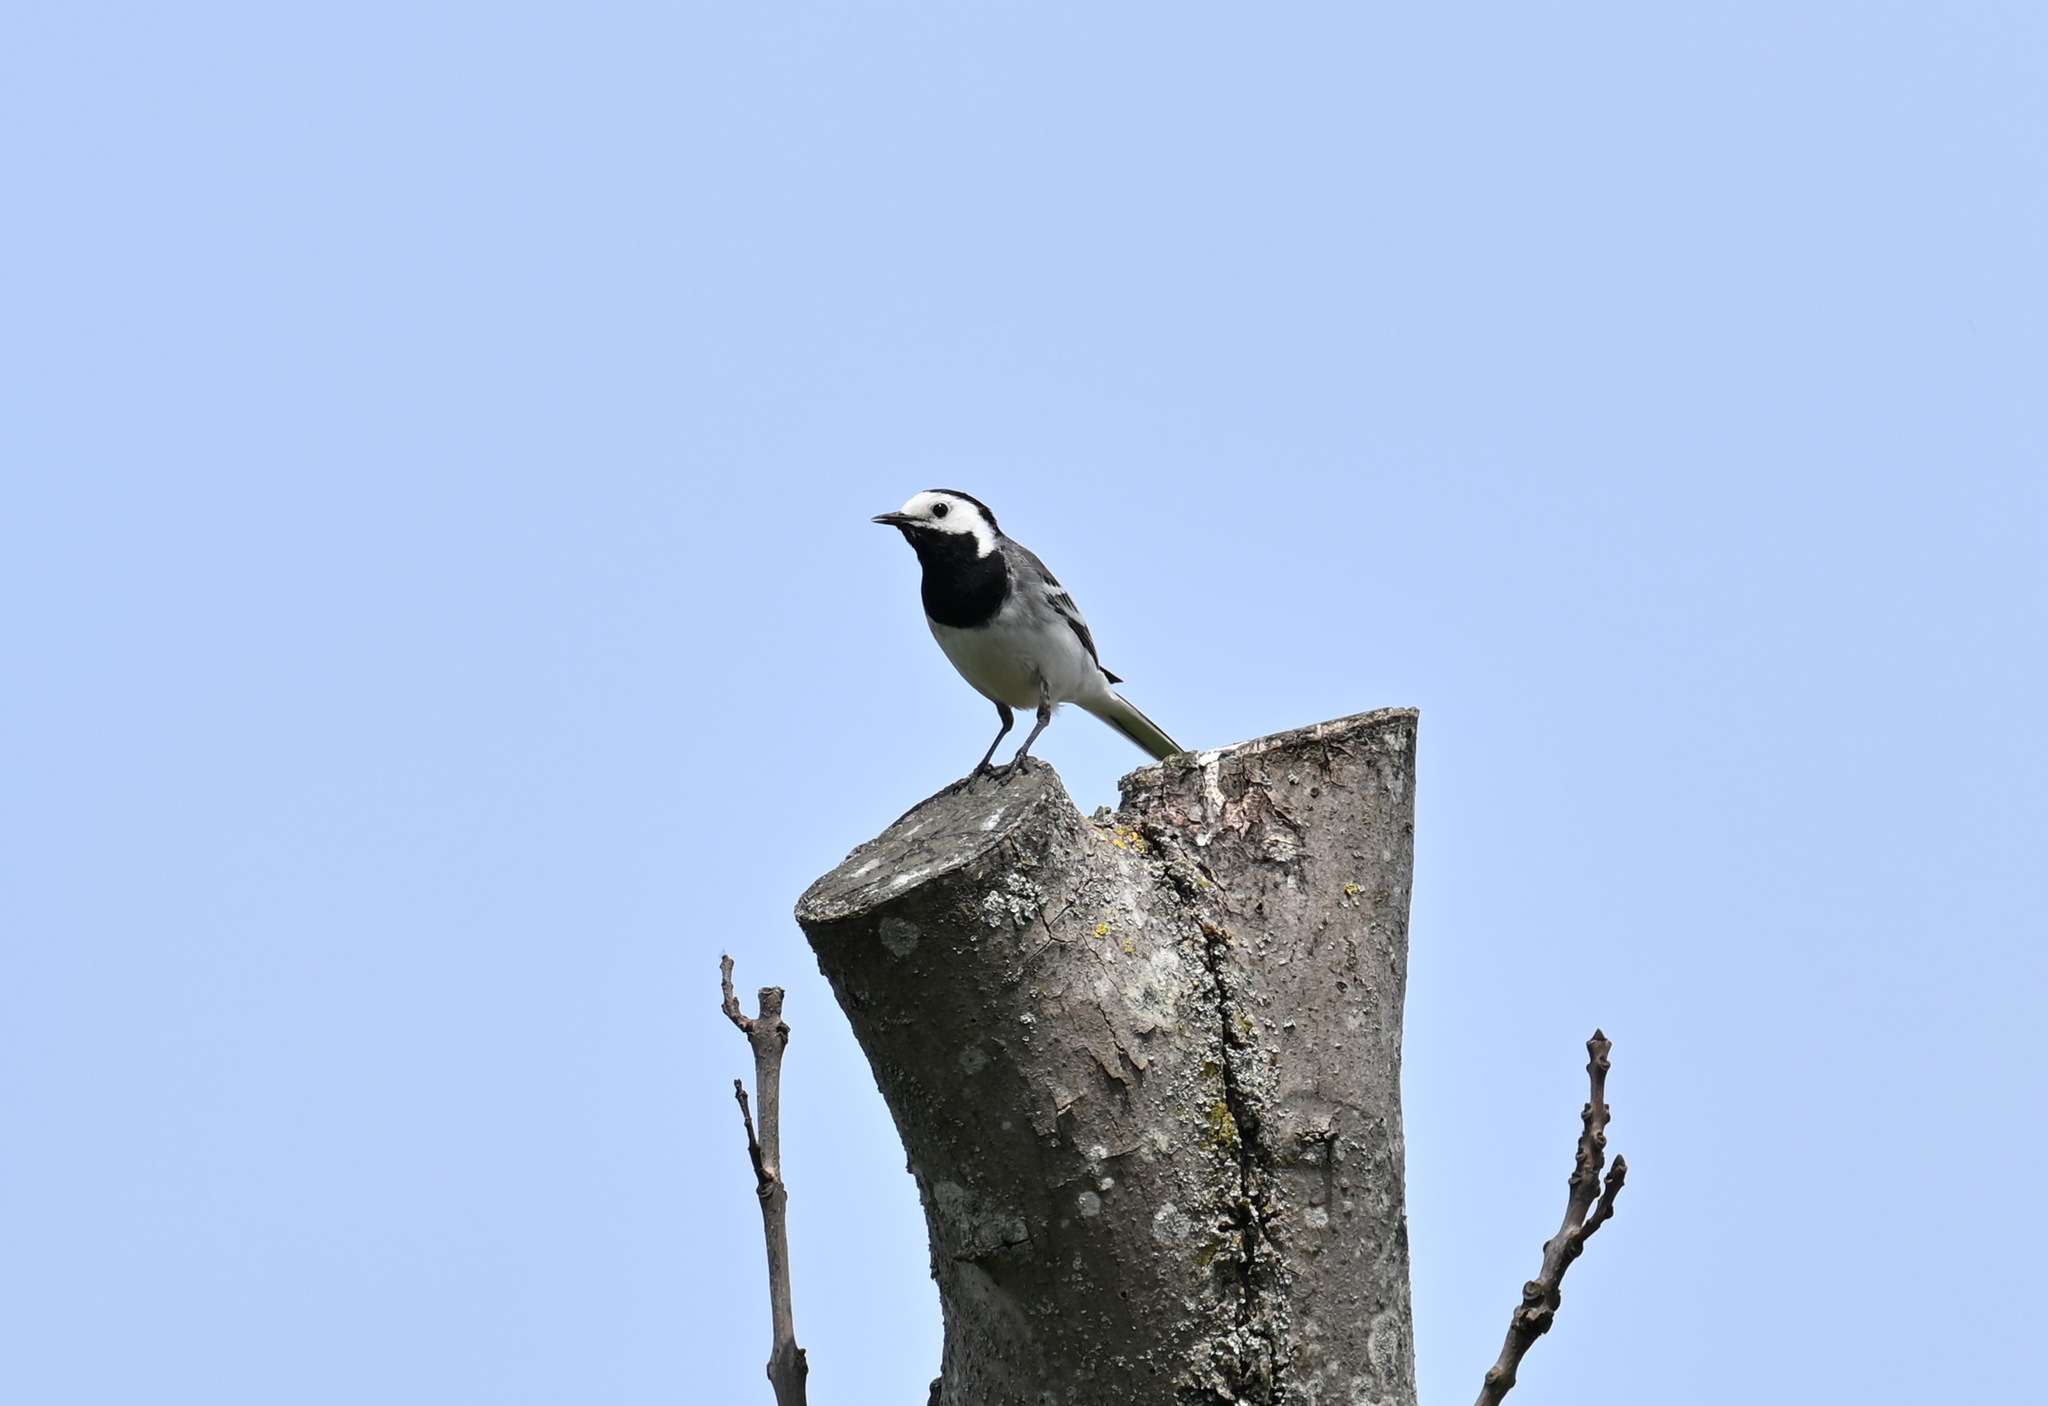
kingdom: Animalia
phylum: Chordata
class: Aves
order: Passeriformes
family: Motacillidae
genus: Motacilla
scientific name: Motacilla alba
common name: White wagtail
